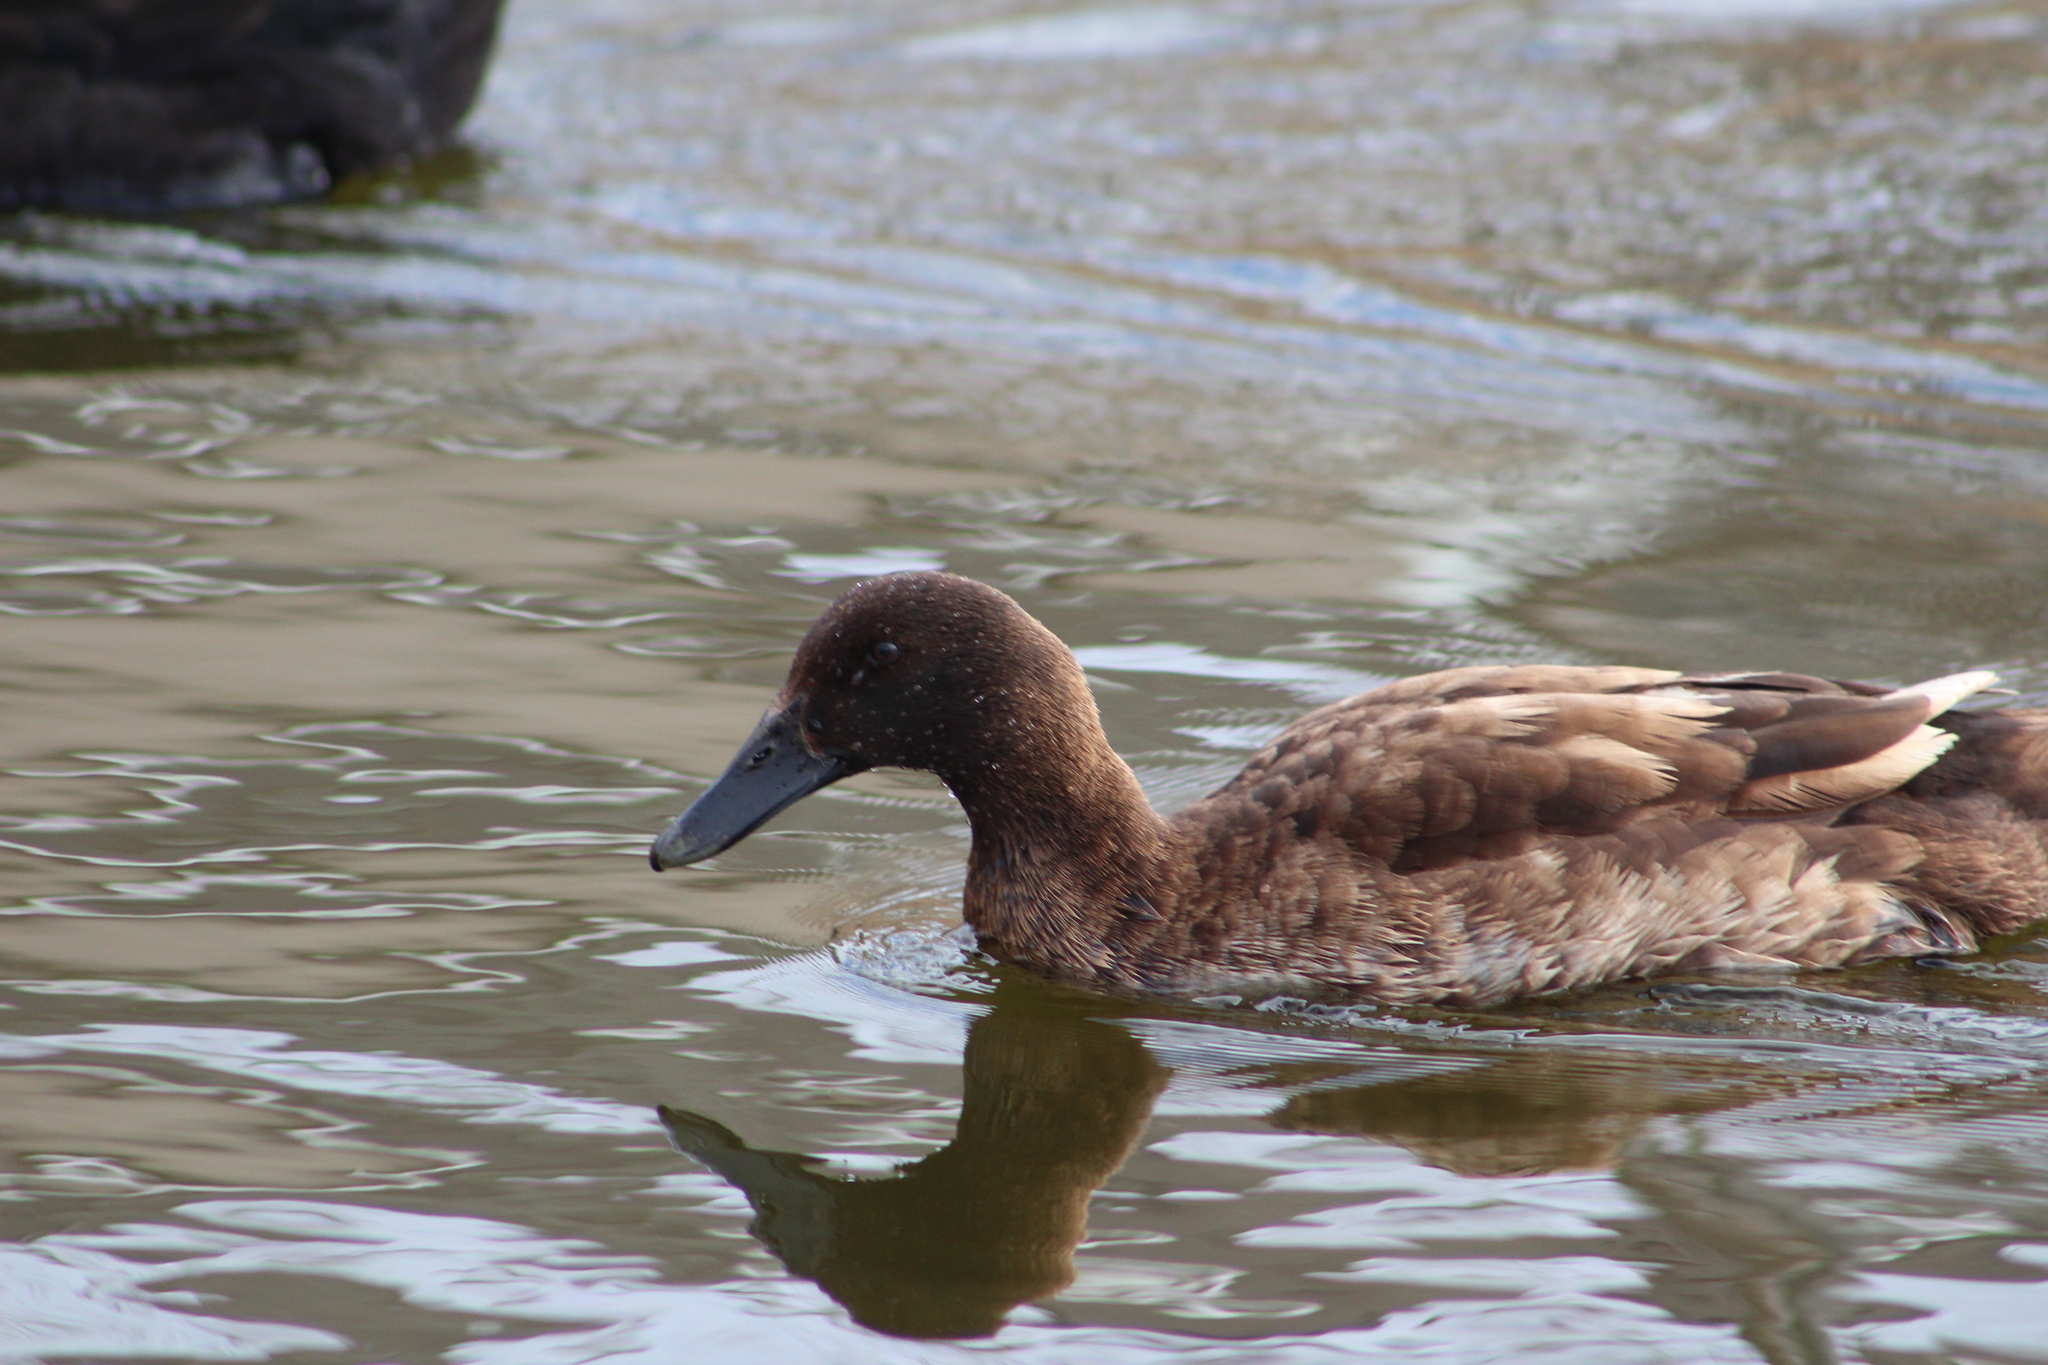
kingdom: Animalia
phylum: Chordata
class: Aves
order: Anseriformes
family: Anatidae
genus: Anas
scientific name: Anas platyrhynchos
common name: Mallard
